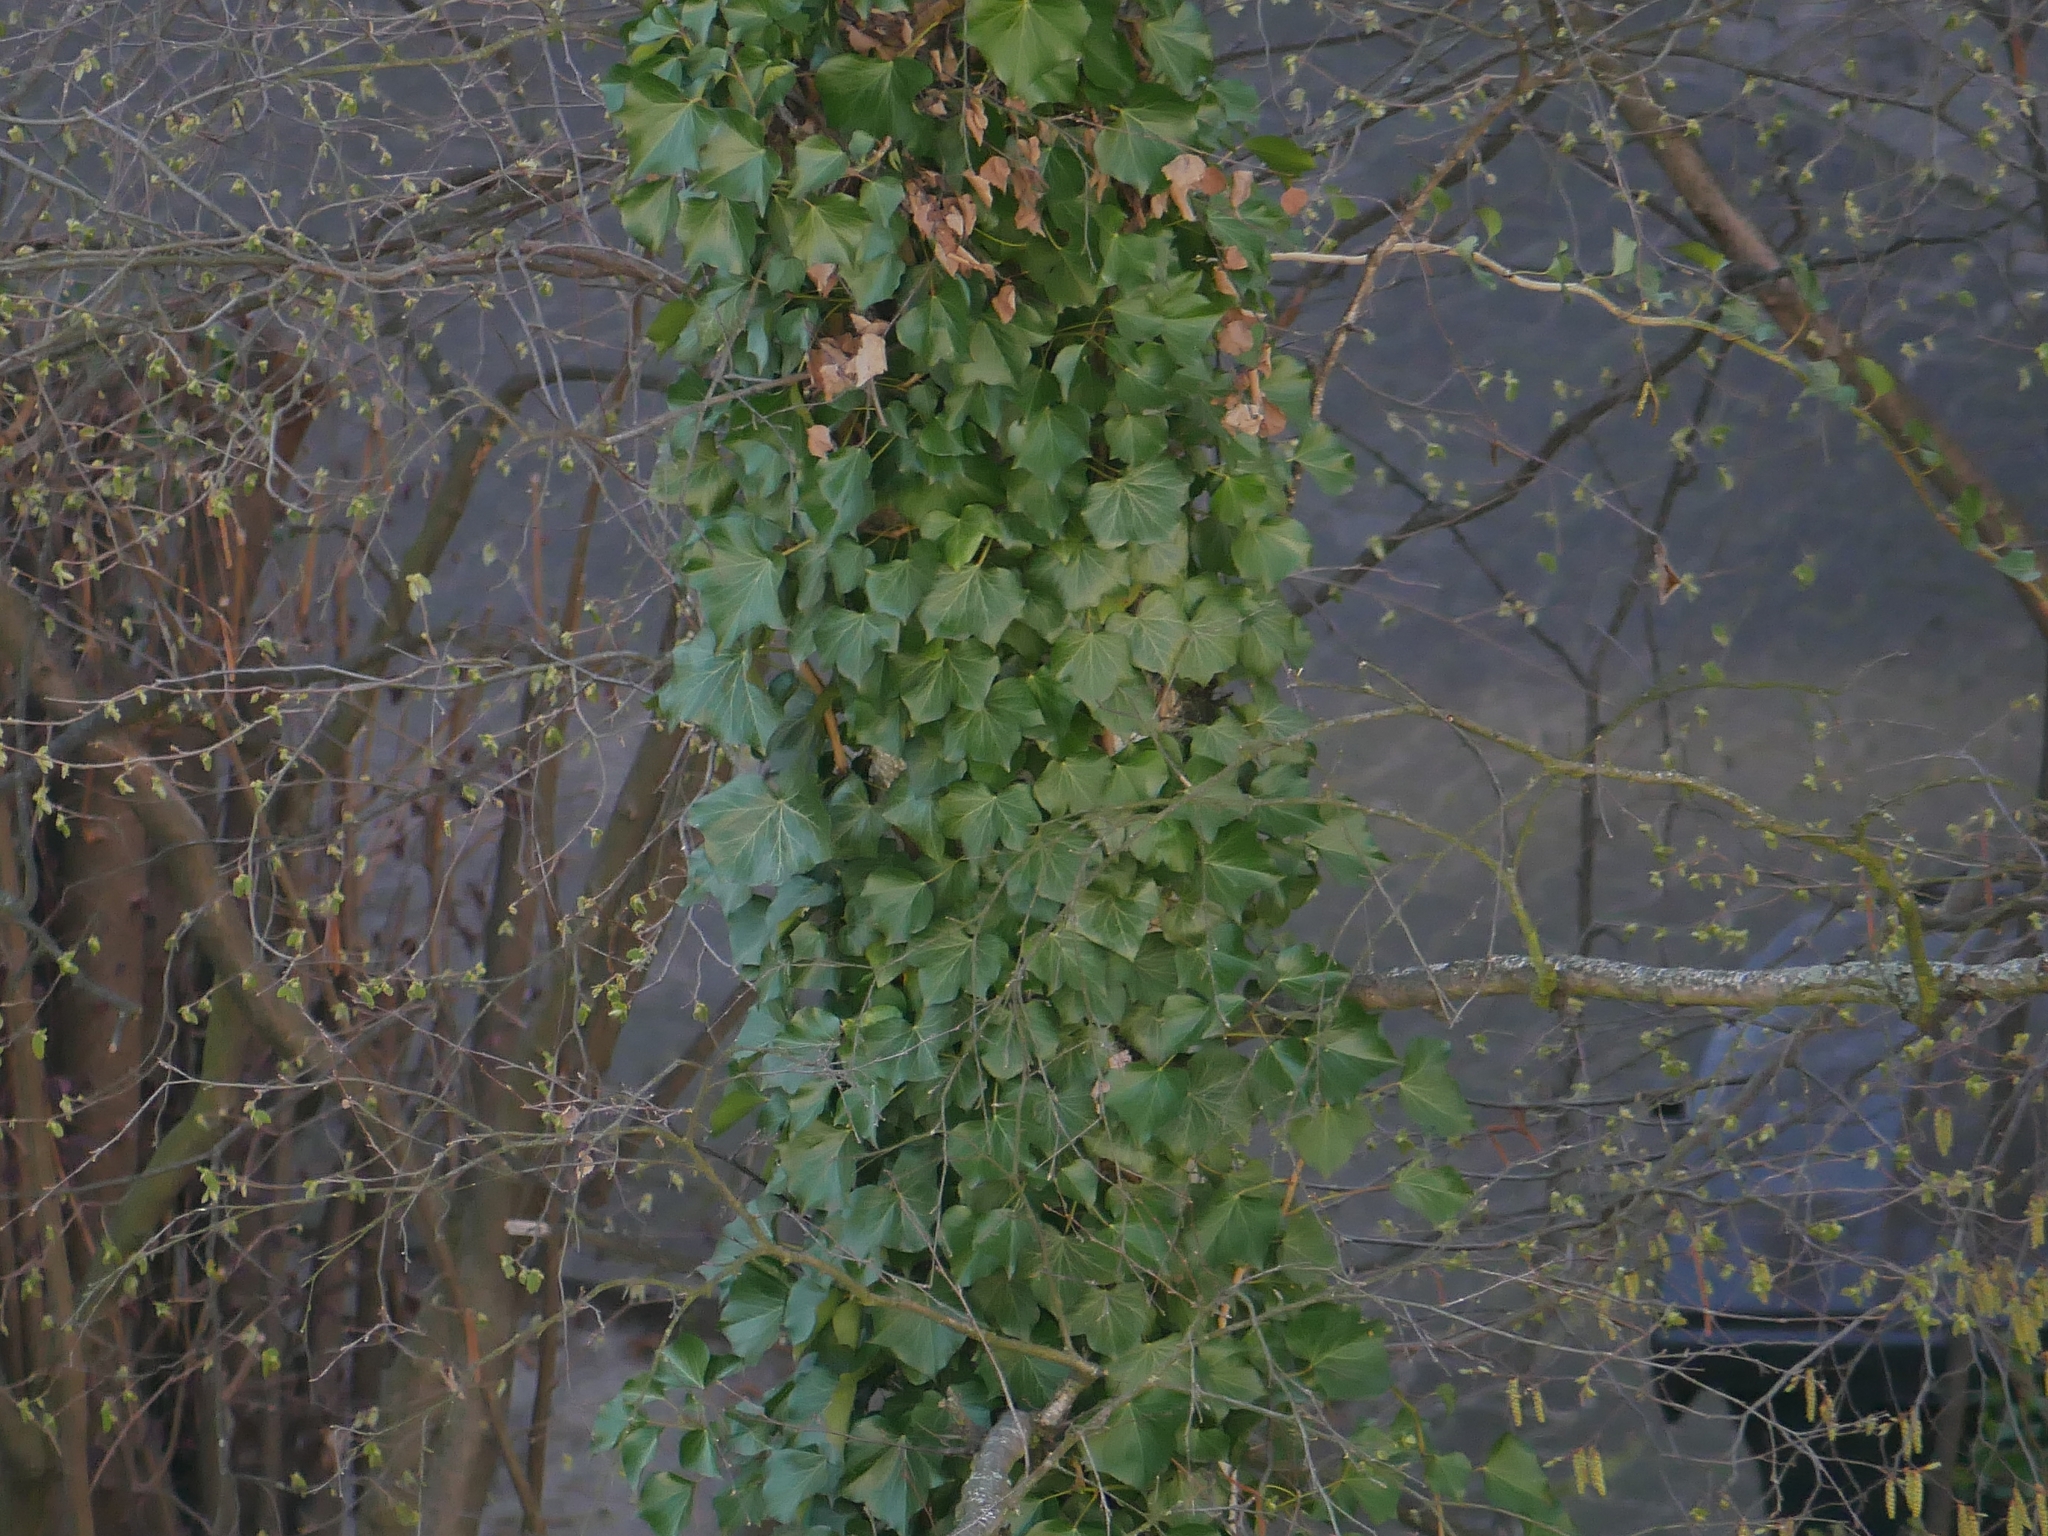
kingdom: Plantae
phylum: Tracheophyta
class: Magnoliopsida
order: Apiales
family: Araliaceae
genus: Hedera
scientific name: Hedera helix
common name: Ivy
